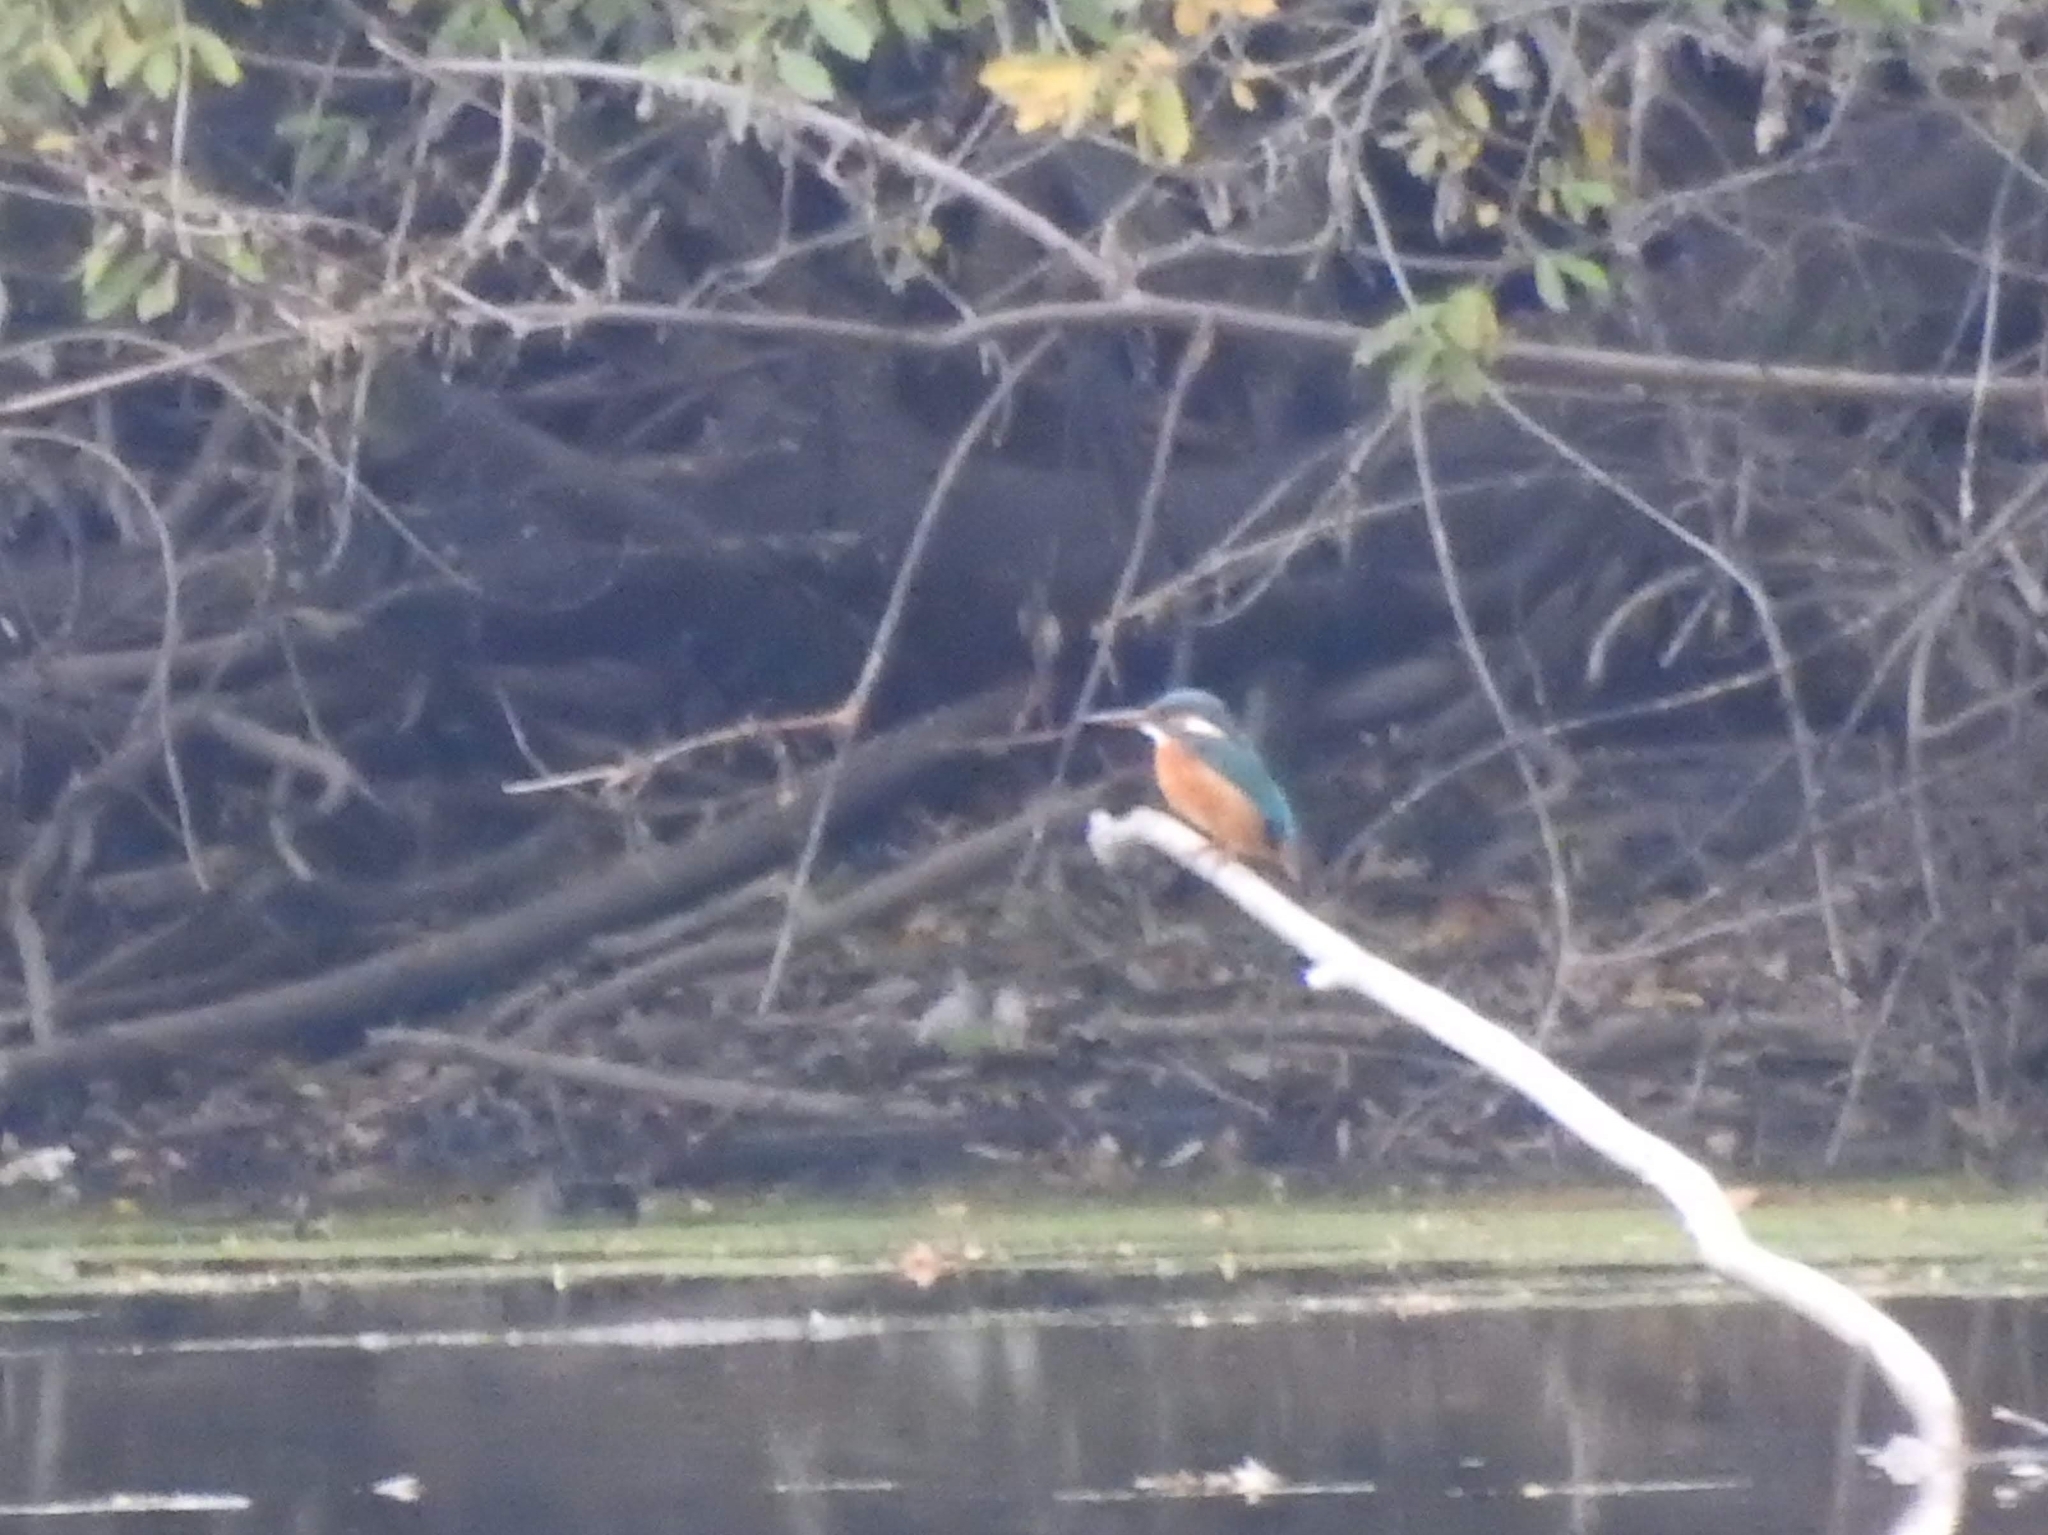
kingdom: Animalia
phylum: Chordata
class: Aves
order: Coraciiformes
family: Alcedinidae
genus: Alcedo
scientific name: Alcedo atthis
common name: Common kingfisher
